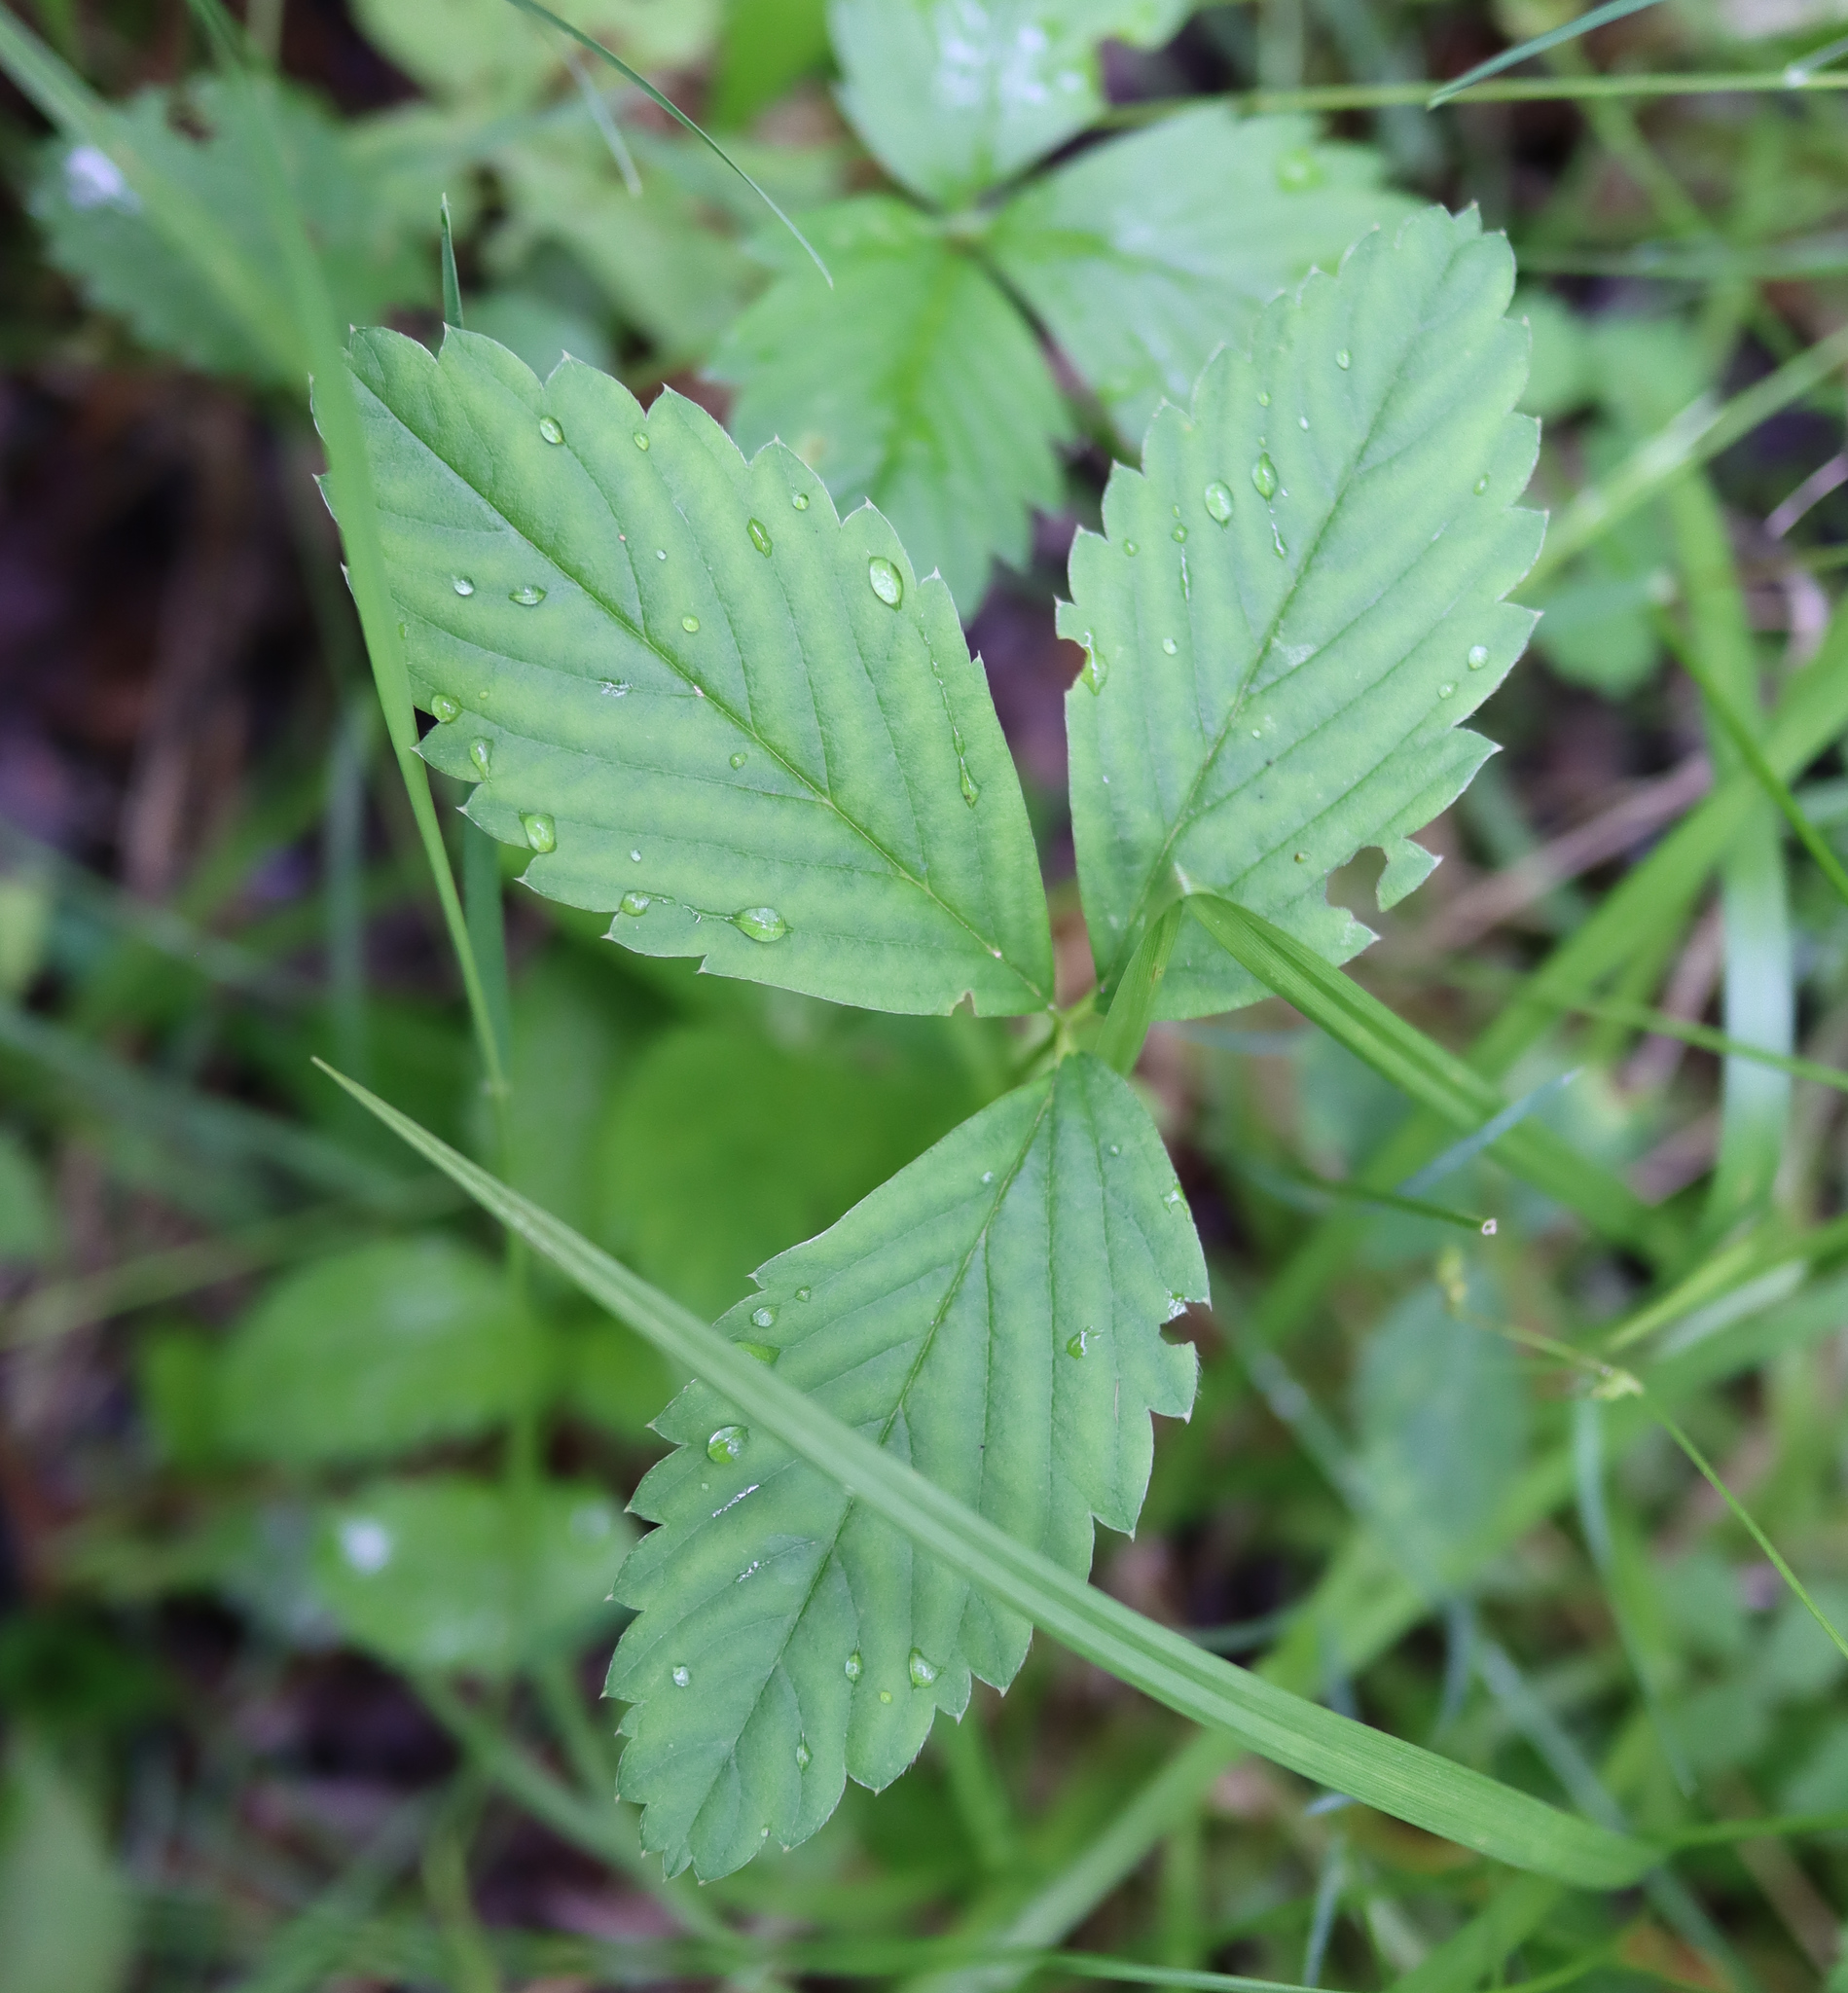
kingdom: Plantae
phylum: Tracheophyta
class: Magnoliopsida
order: Rosales
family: Rosaceae
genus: Fragaria
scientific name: Fragaria virginiana
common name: Thickleaved wild strawberry
